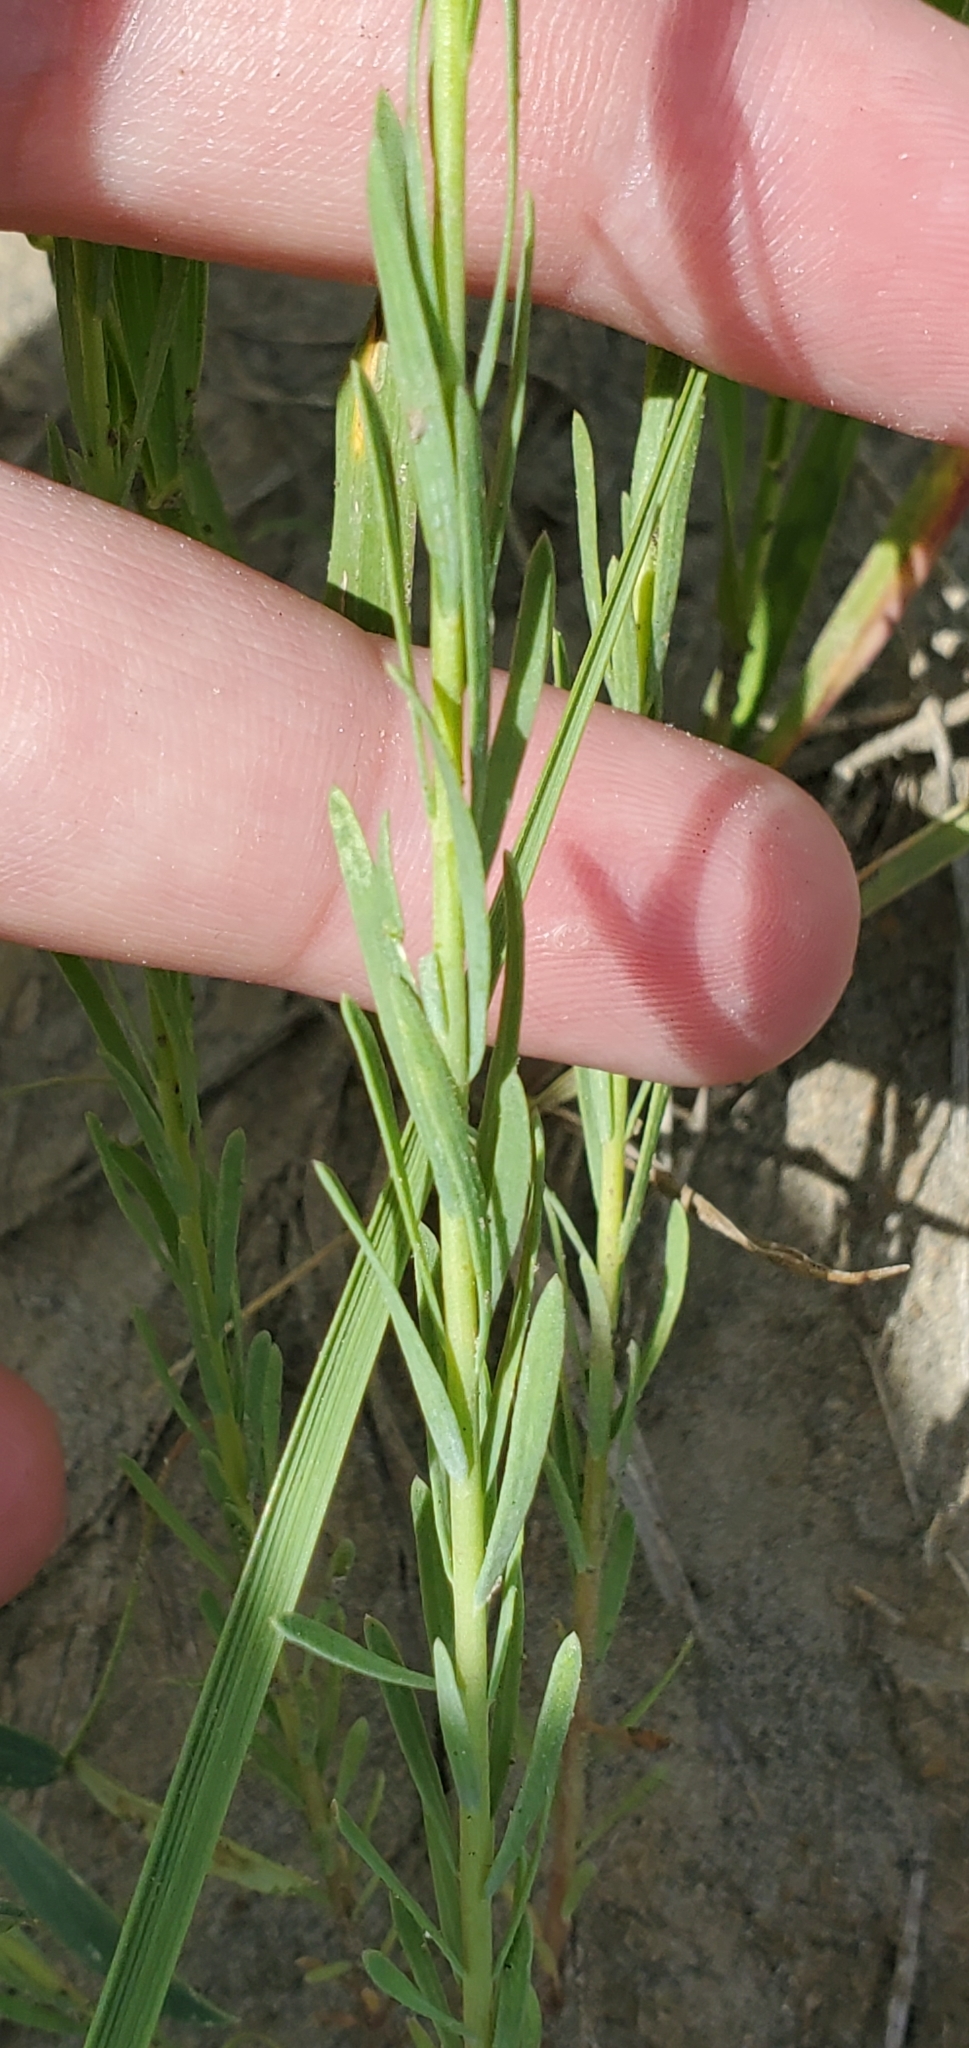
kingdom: Plantae
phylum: Tracheophyta
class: Magnoliopsida
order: Malpighiales
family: Linaceae
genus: Linum
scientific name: Linum lewisii
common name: Prairie flax
